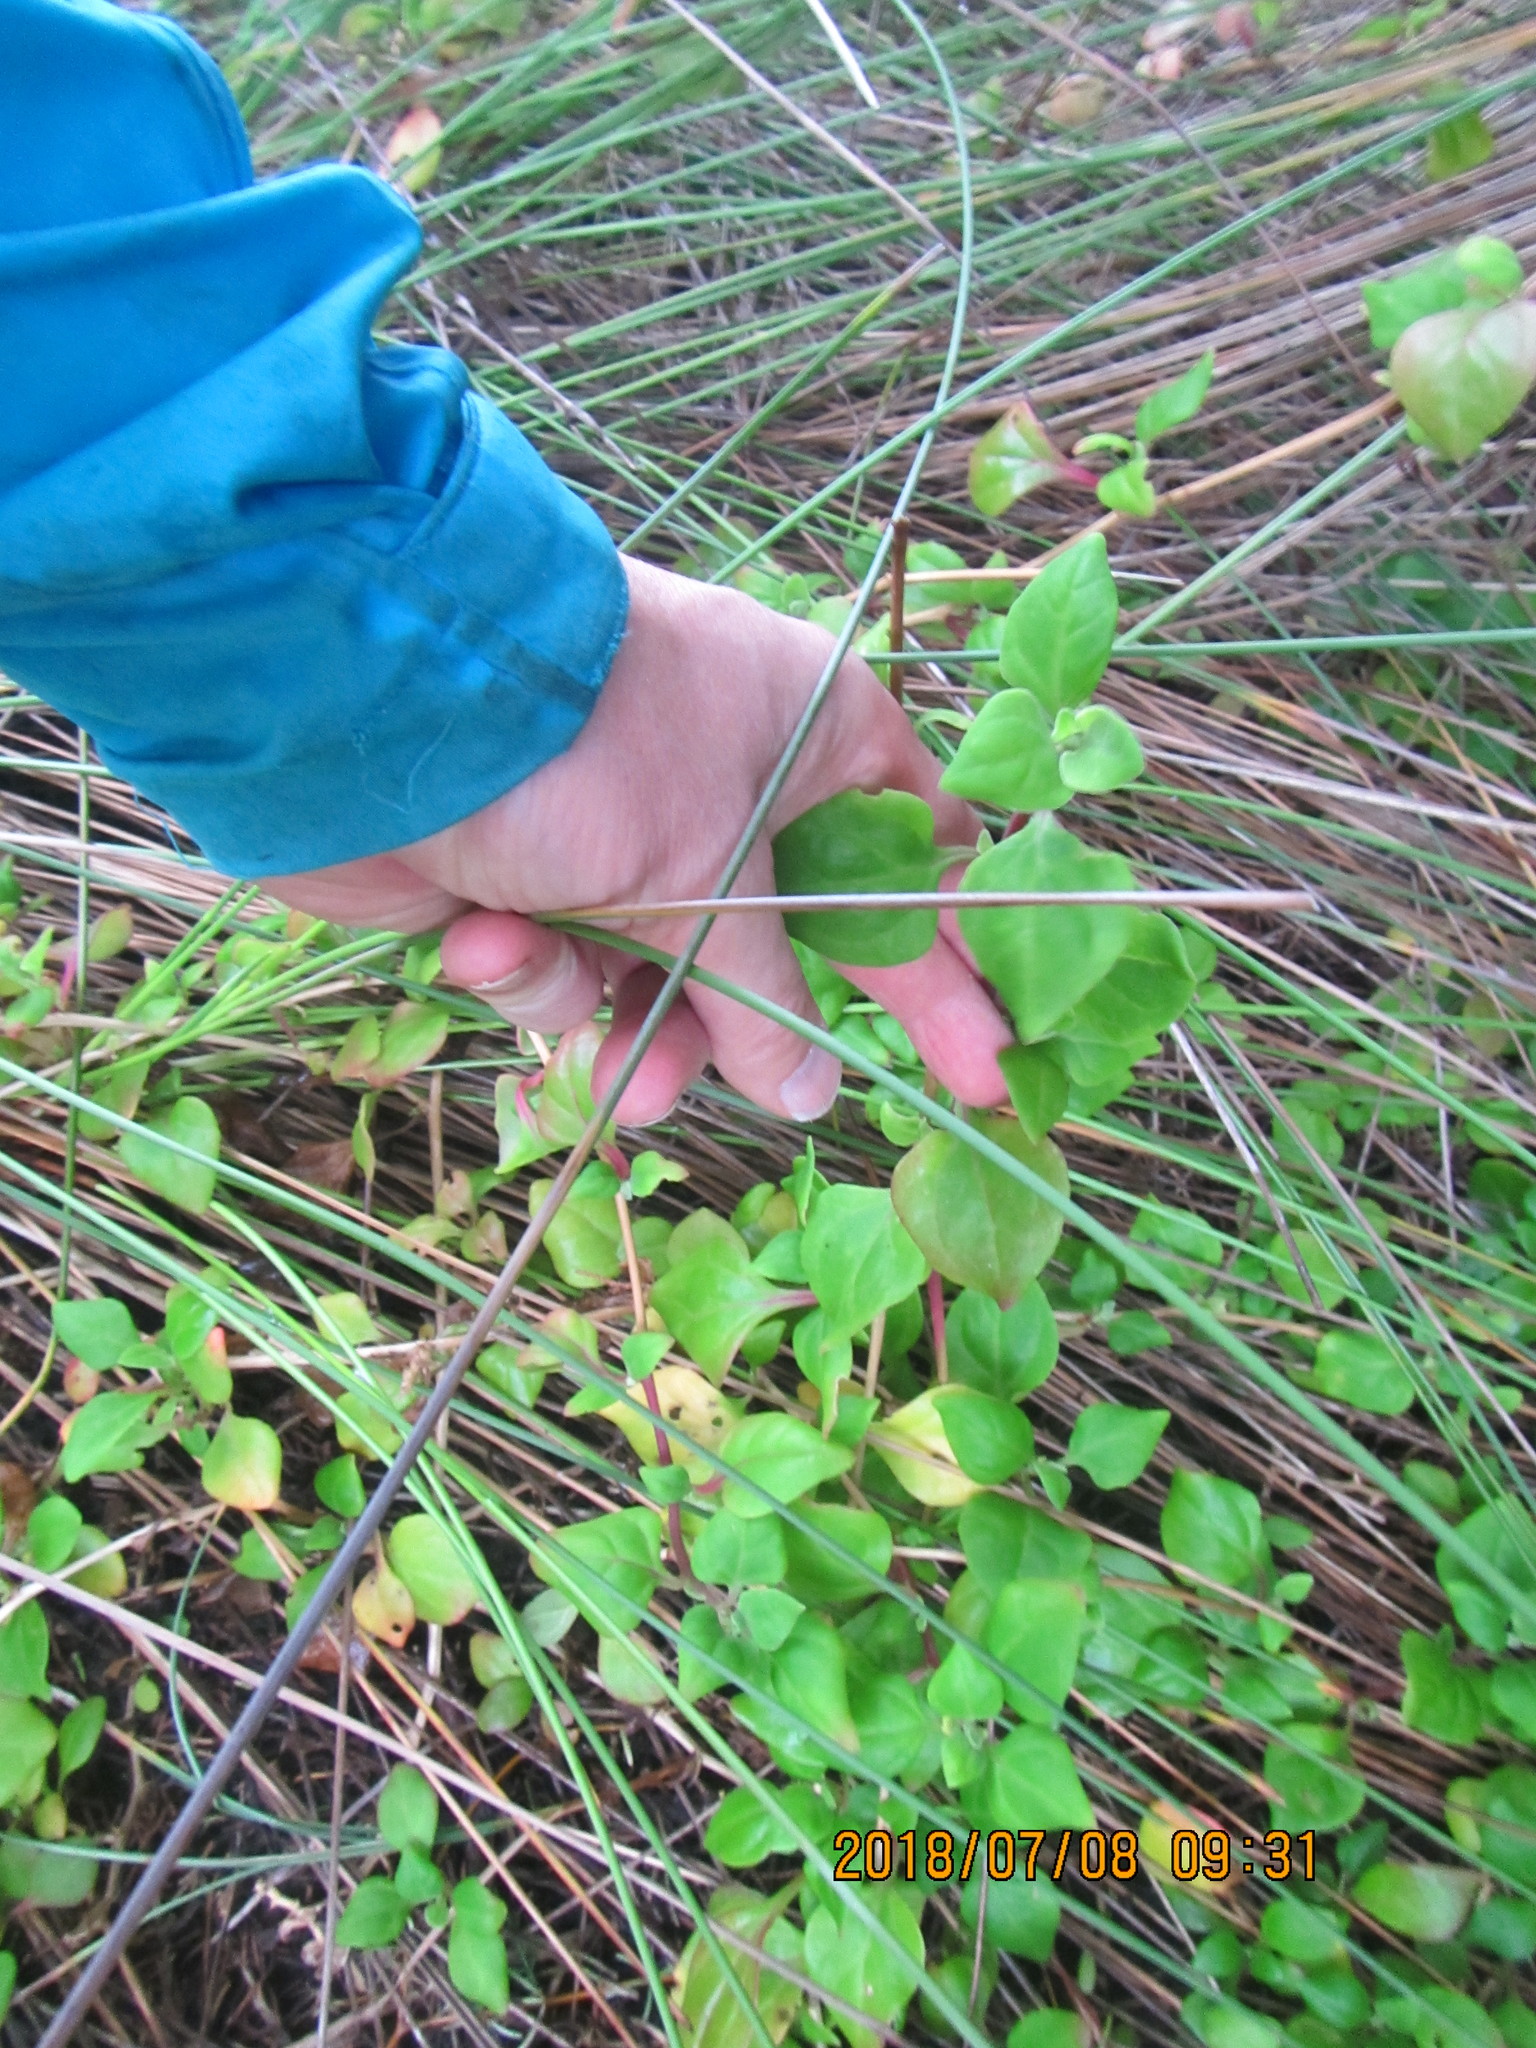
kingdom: Plantae
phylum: Tracheophyta
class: Magnoliopsida
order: Caryophyllales
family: Aizoaceae
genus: Tetragonia
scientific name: Tetragonia implexicoma
